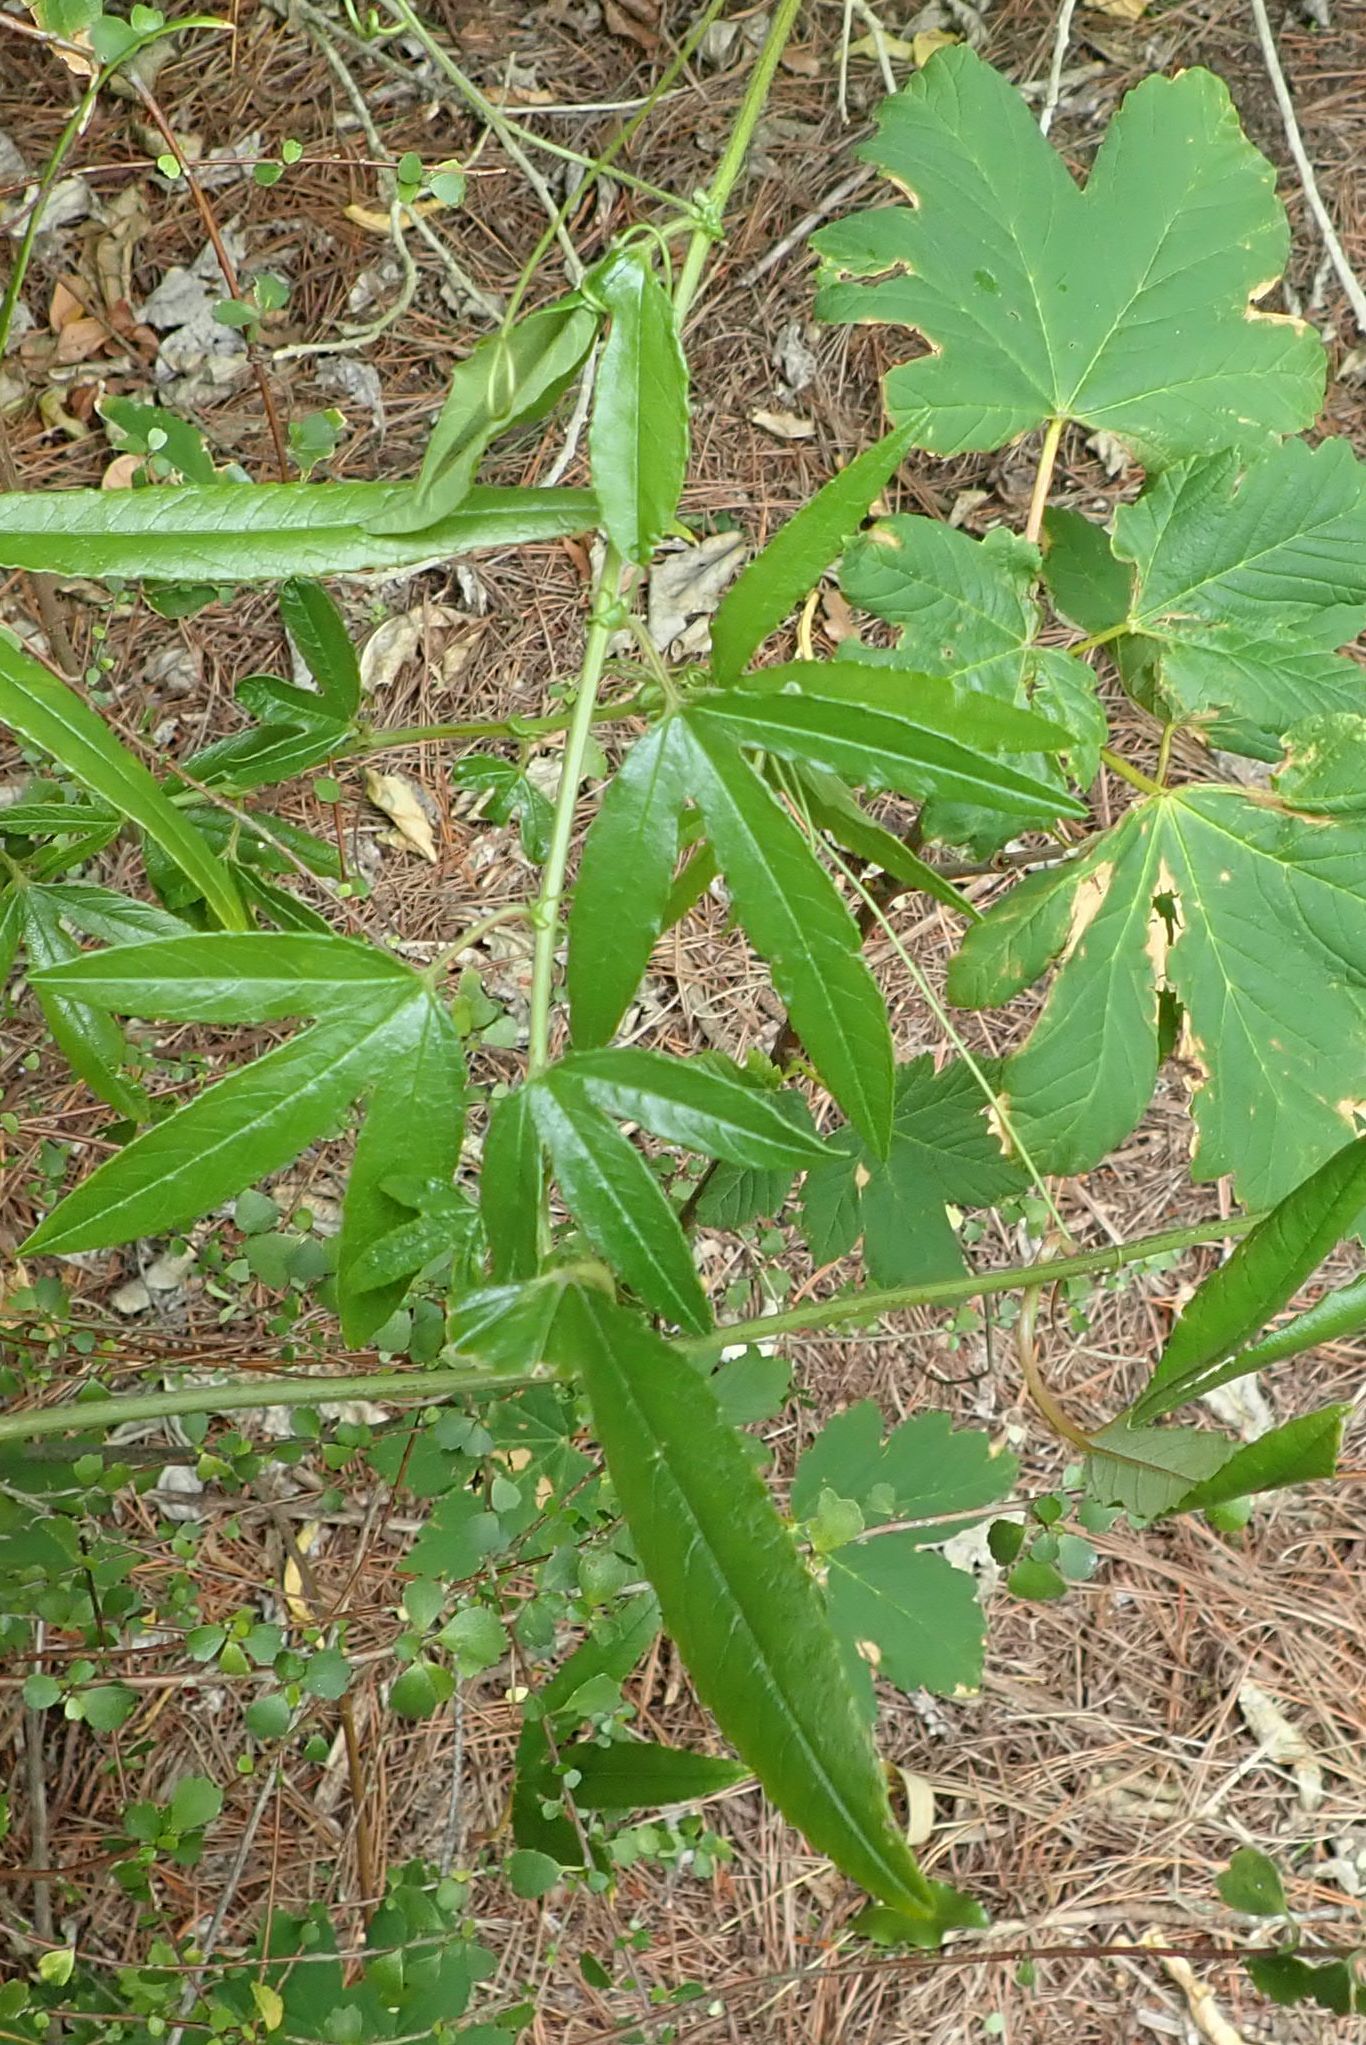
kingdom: Plantae
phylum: Tracheophyta
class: Magnoliopsida
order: Malpighiales
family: Passifloraceae
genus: Passiflora
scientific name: Passiflora tripartita
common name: Banana poka
